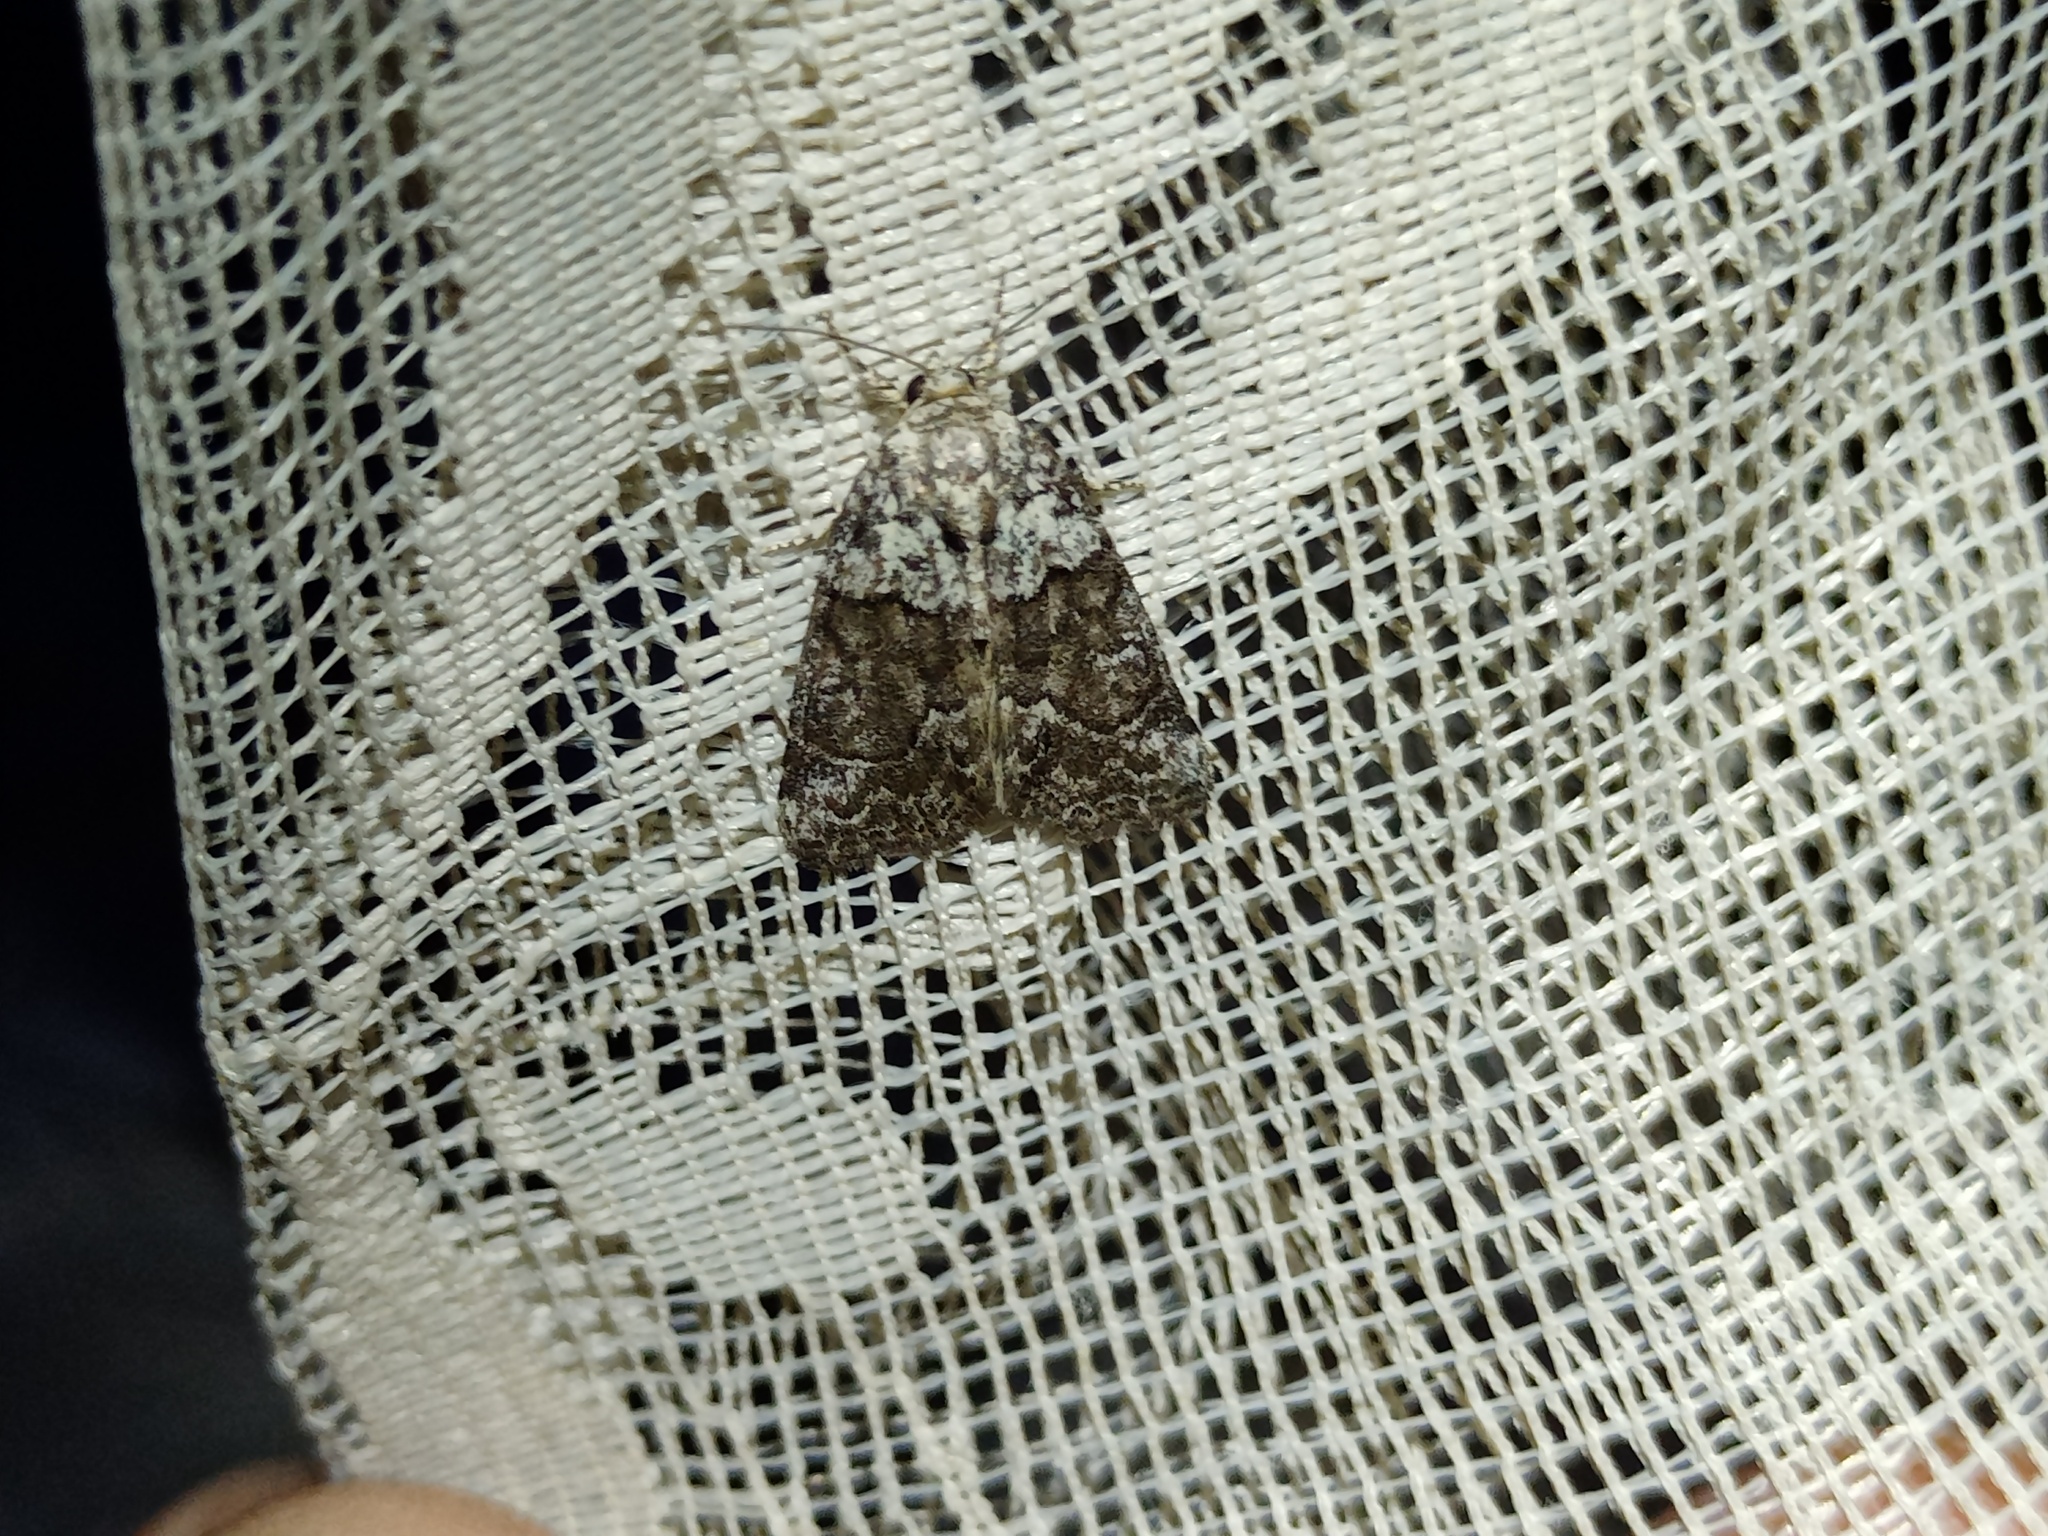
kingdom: Animalia
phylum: Arthropoda
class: Insecta
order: Lepidoptera
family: Noctuidae
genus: Bryophila
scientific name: Bryophila ereptricula
